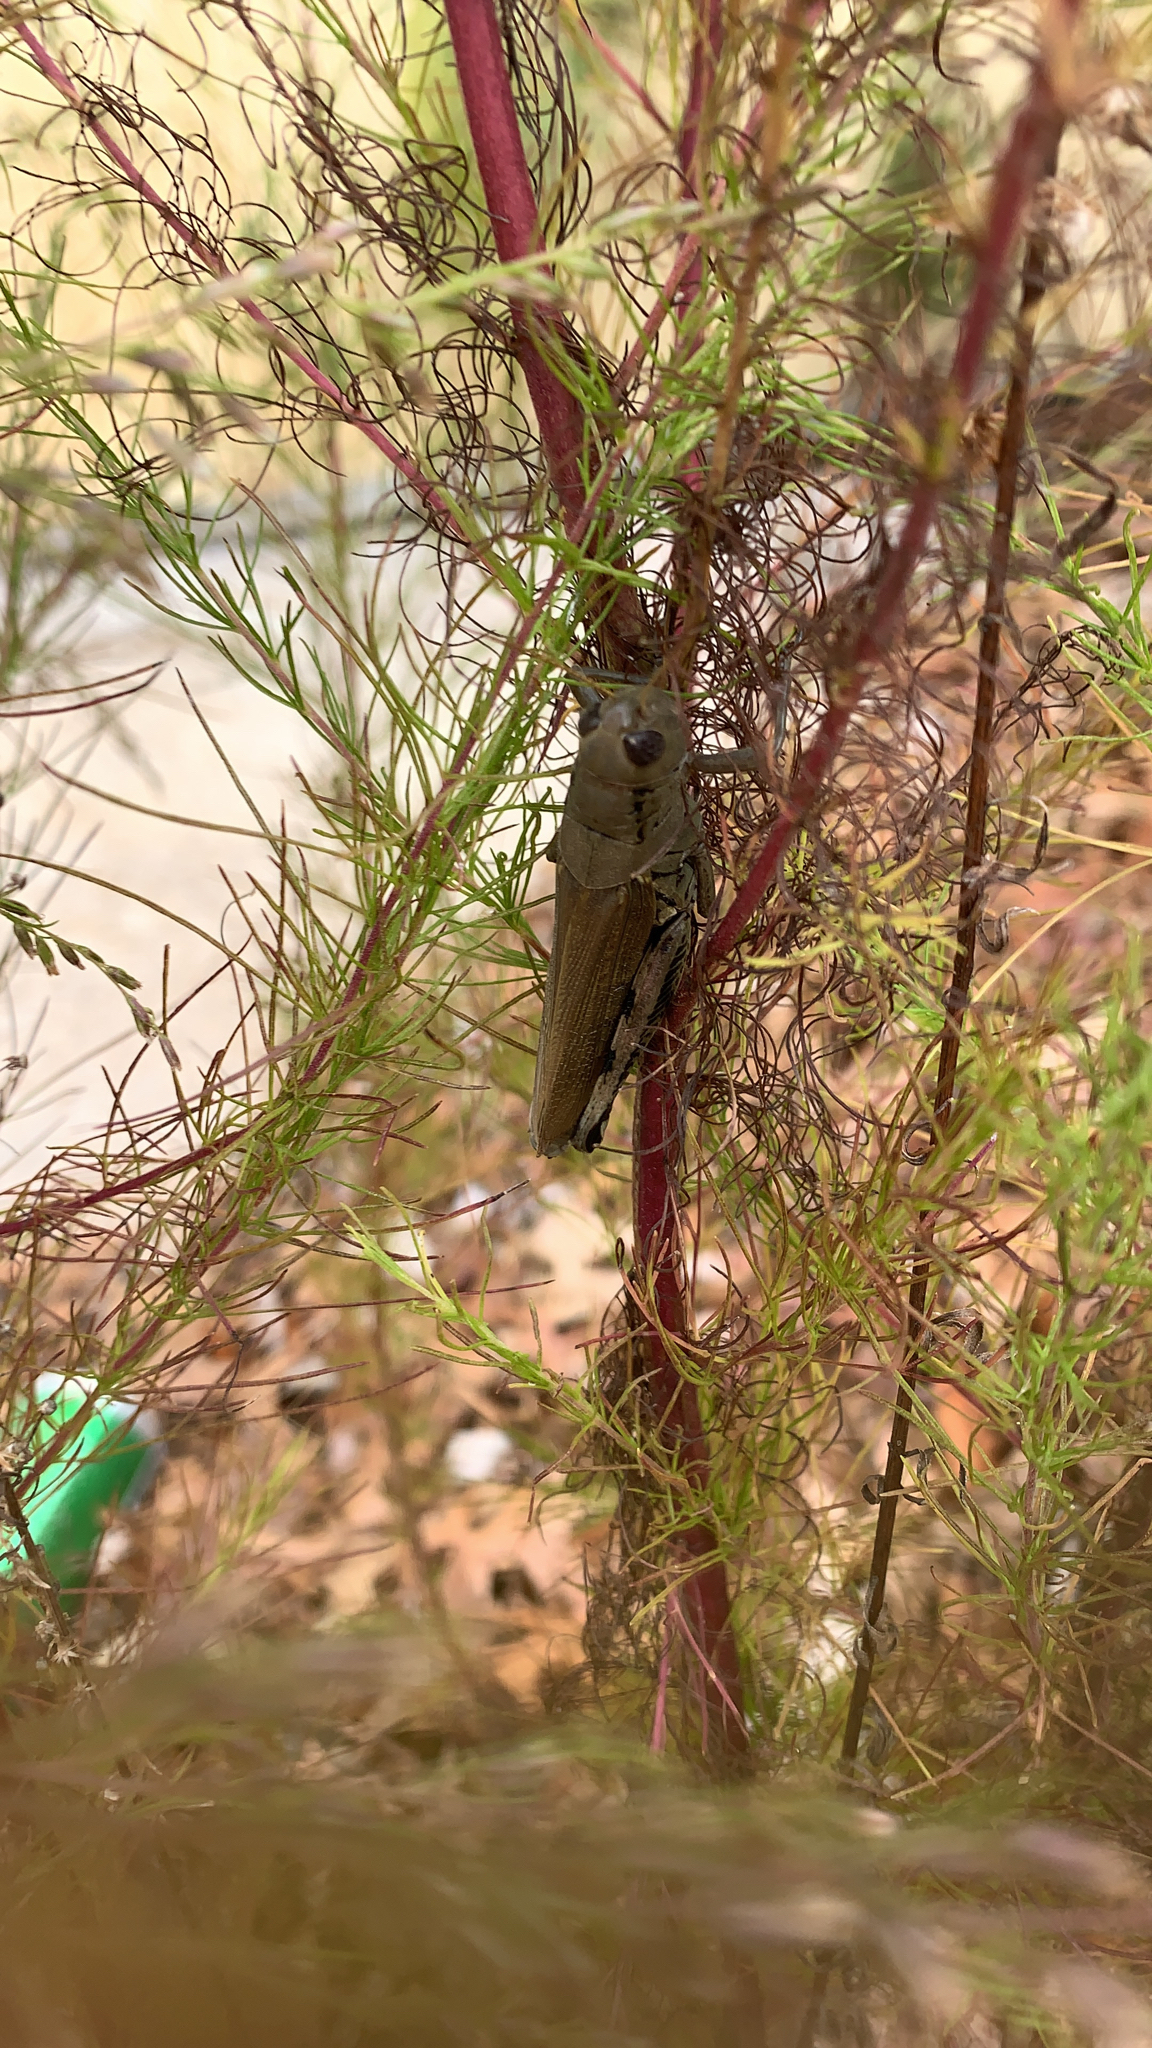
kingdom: Animalia
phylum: Arthropoda
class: Insecta
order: Orthoptera
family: Acrididae
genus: Melanoplus
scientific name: Melanoplus differentialis
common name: Differential grasshopper
